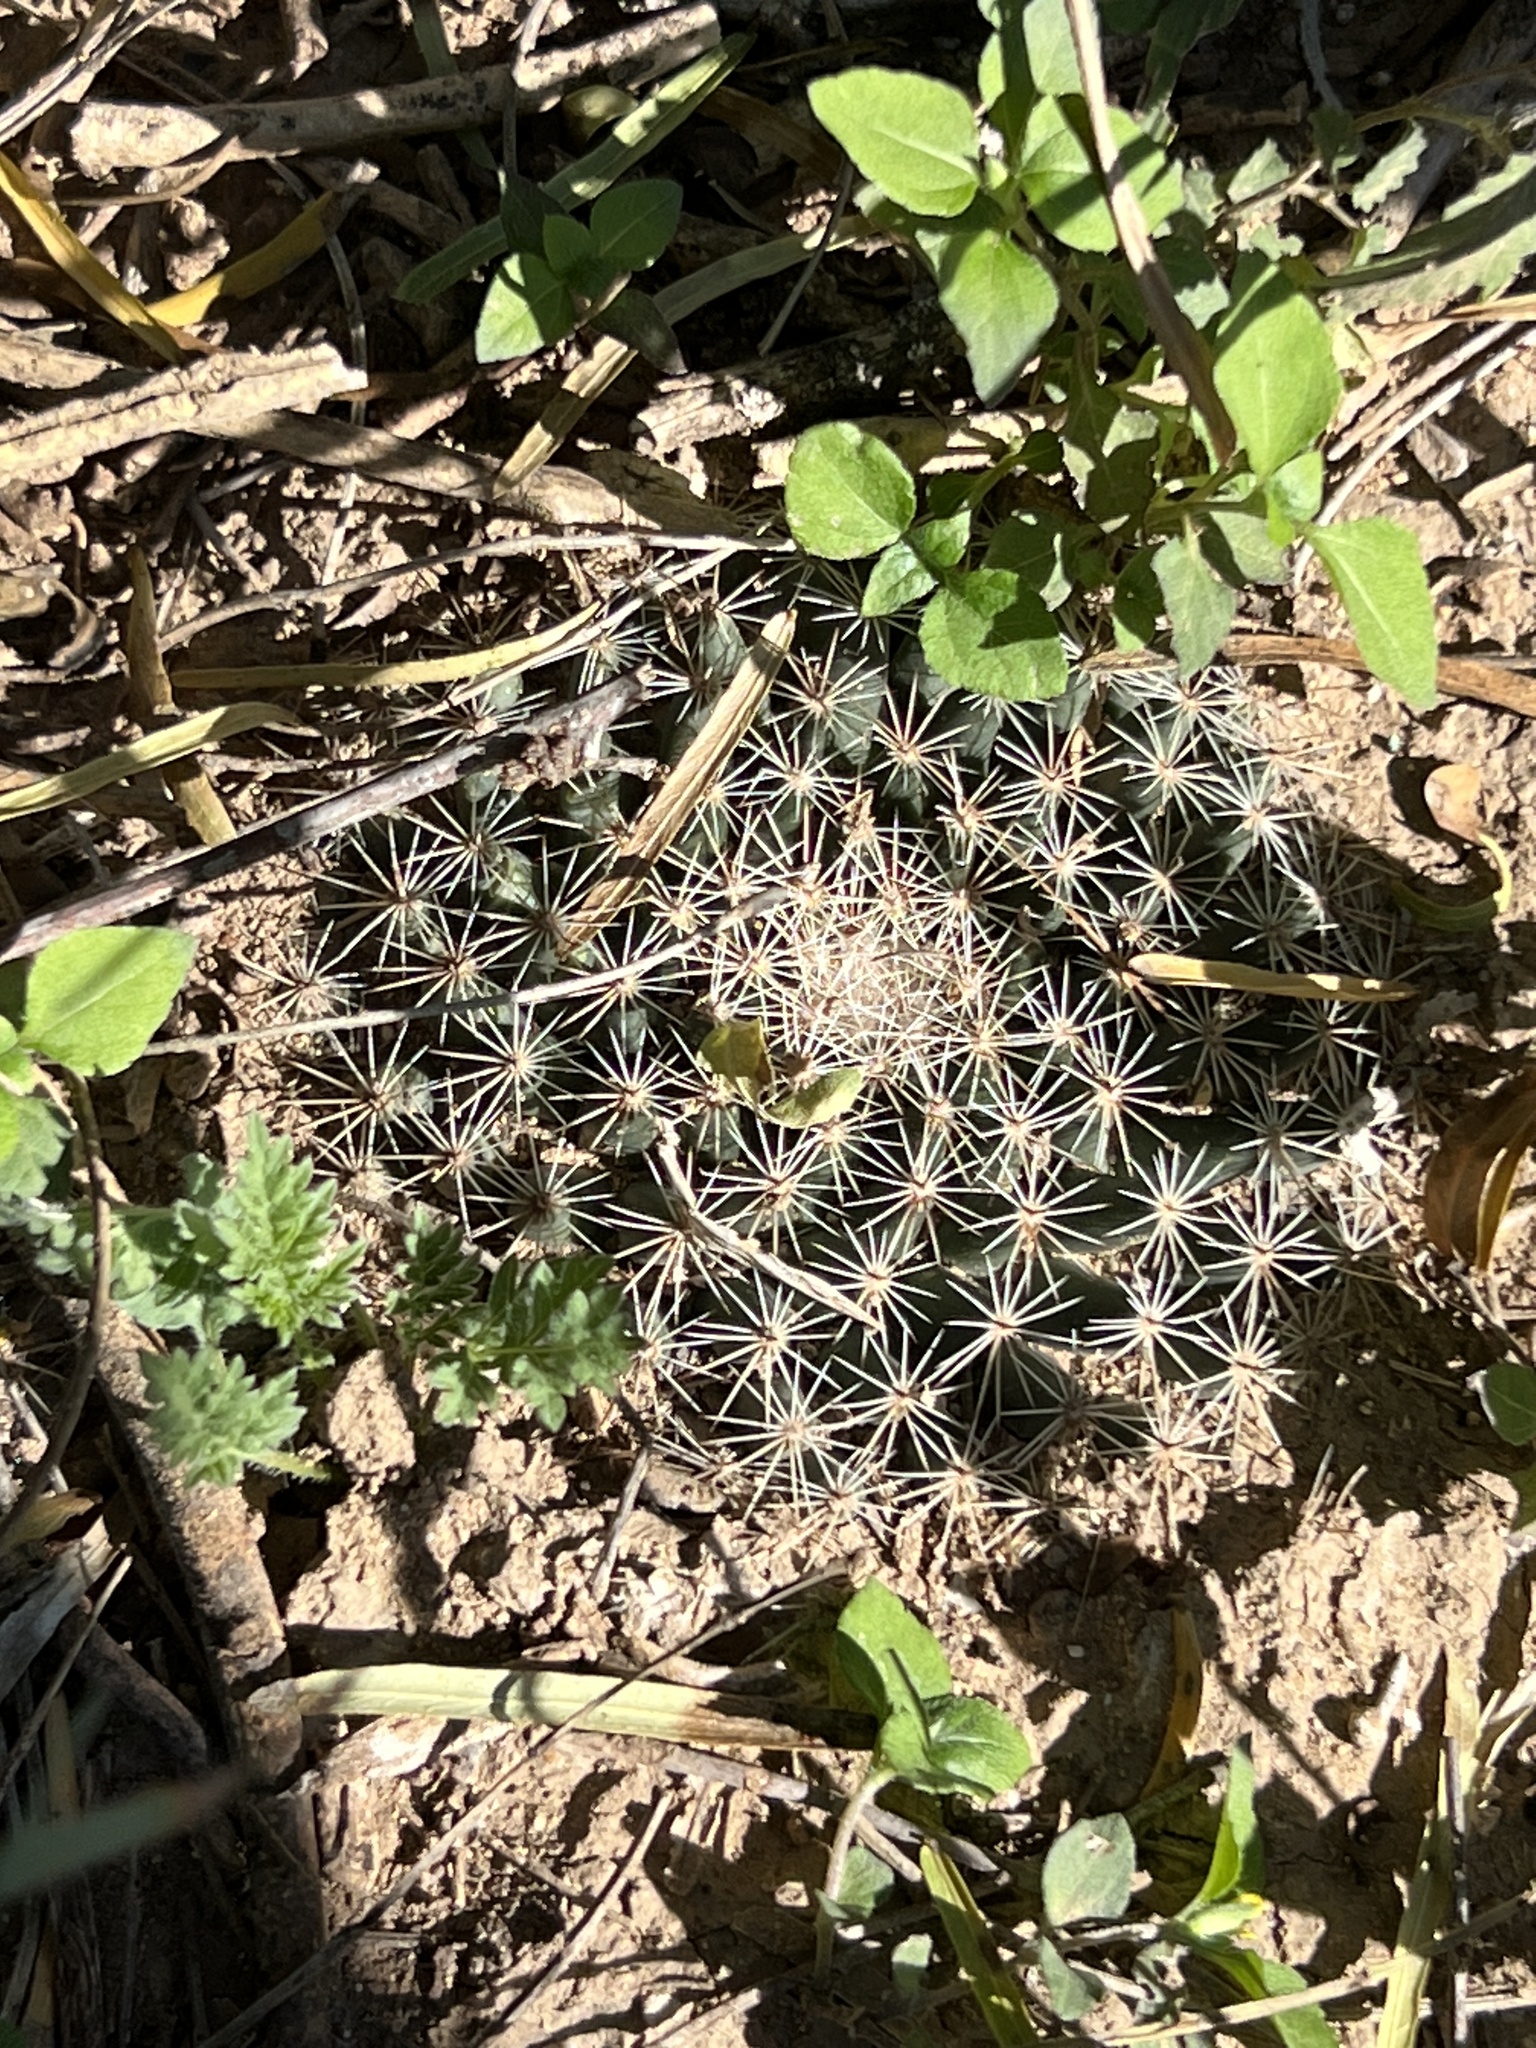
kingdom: Plantae
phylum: Tracheophyta
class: Magnoliopsida
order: Caryophyllales
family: Cactaceae
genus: Mammillaria
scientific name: Mammillaria heyderi
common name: Little nipple cactus
